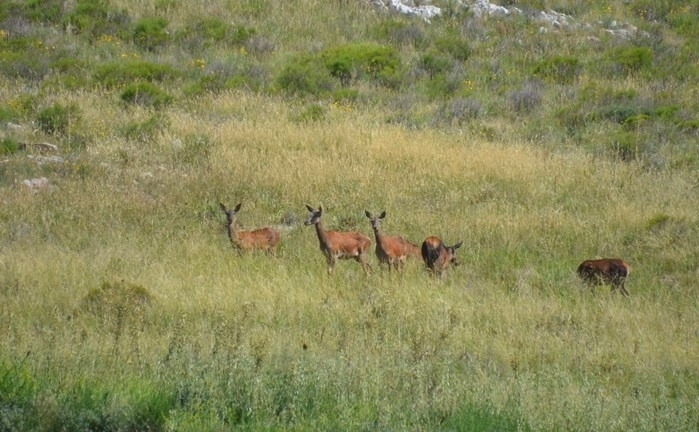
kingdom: Animalia
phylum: Chordata
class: Mammalia
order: Artiodactyla
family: Cervidae
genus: Cervus
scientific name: Cervus elaphus
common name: Red deer
